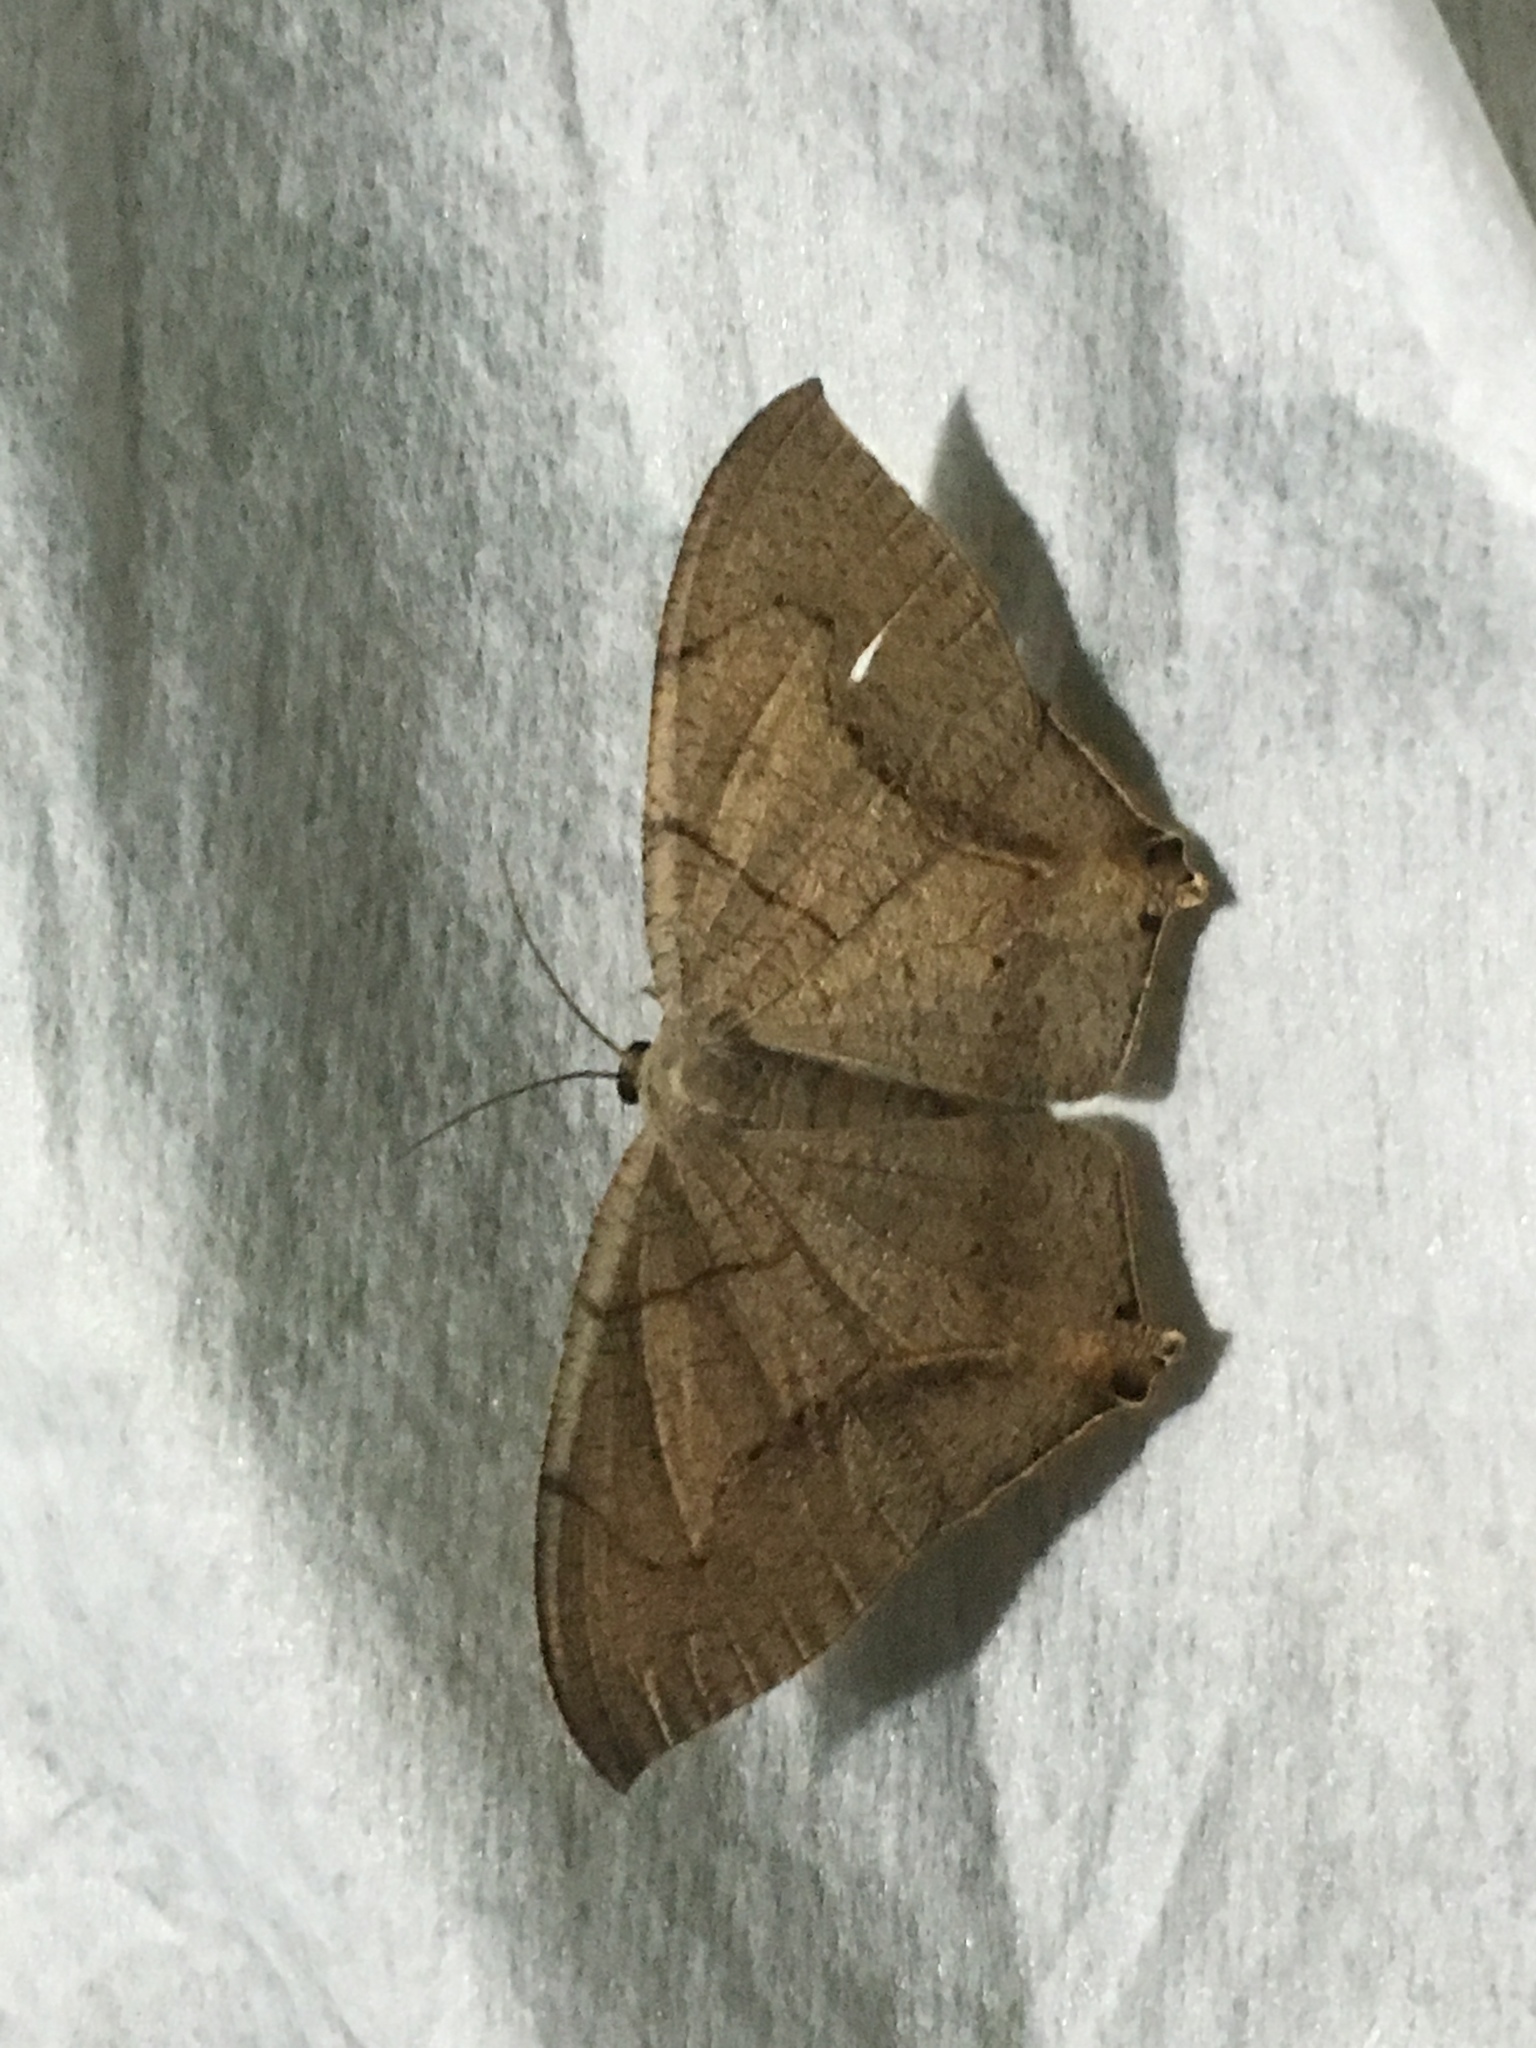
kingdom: Animalia
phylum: Arthropoda
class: Insecta
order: Lepidoptera
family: Uraniidae
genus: Psamathia
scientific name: Psamathia impunctata
